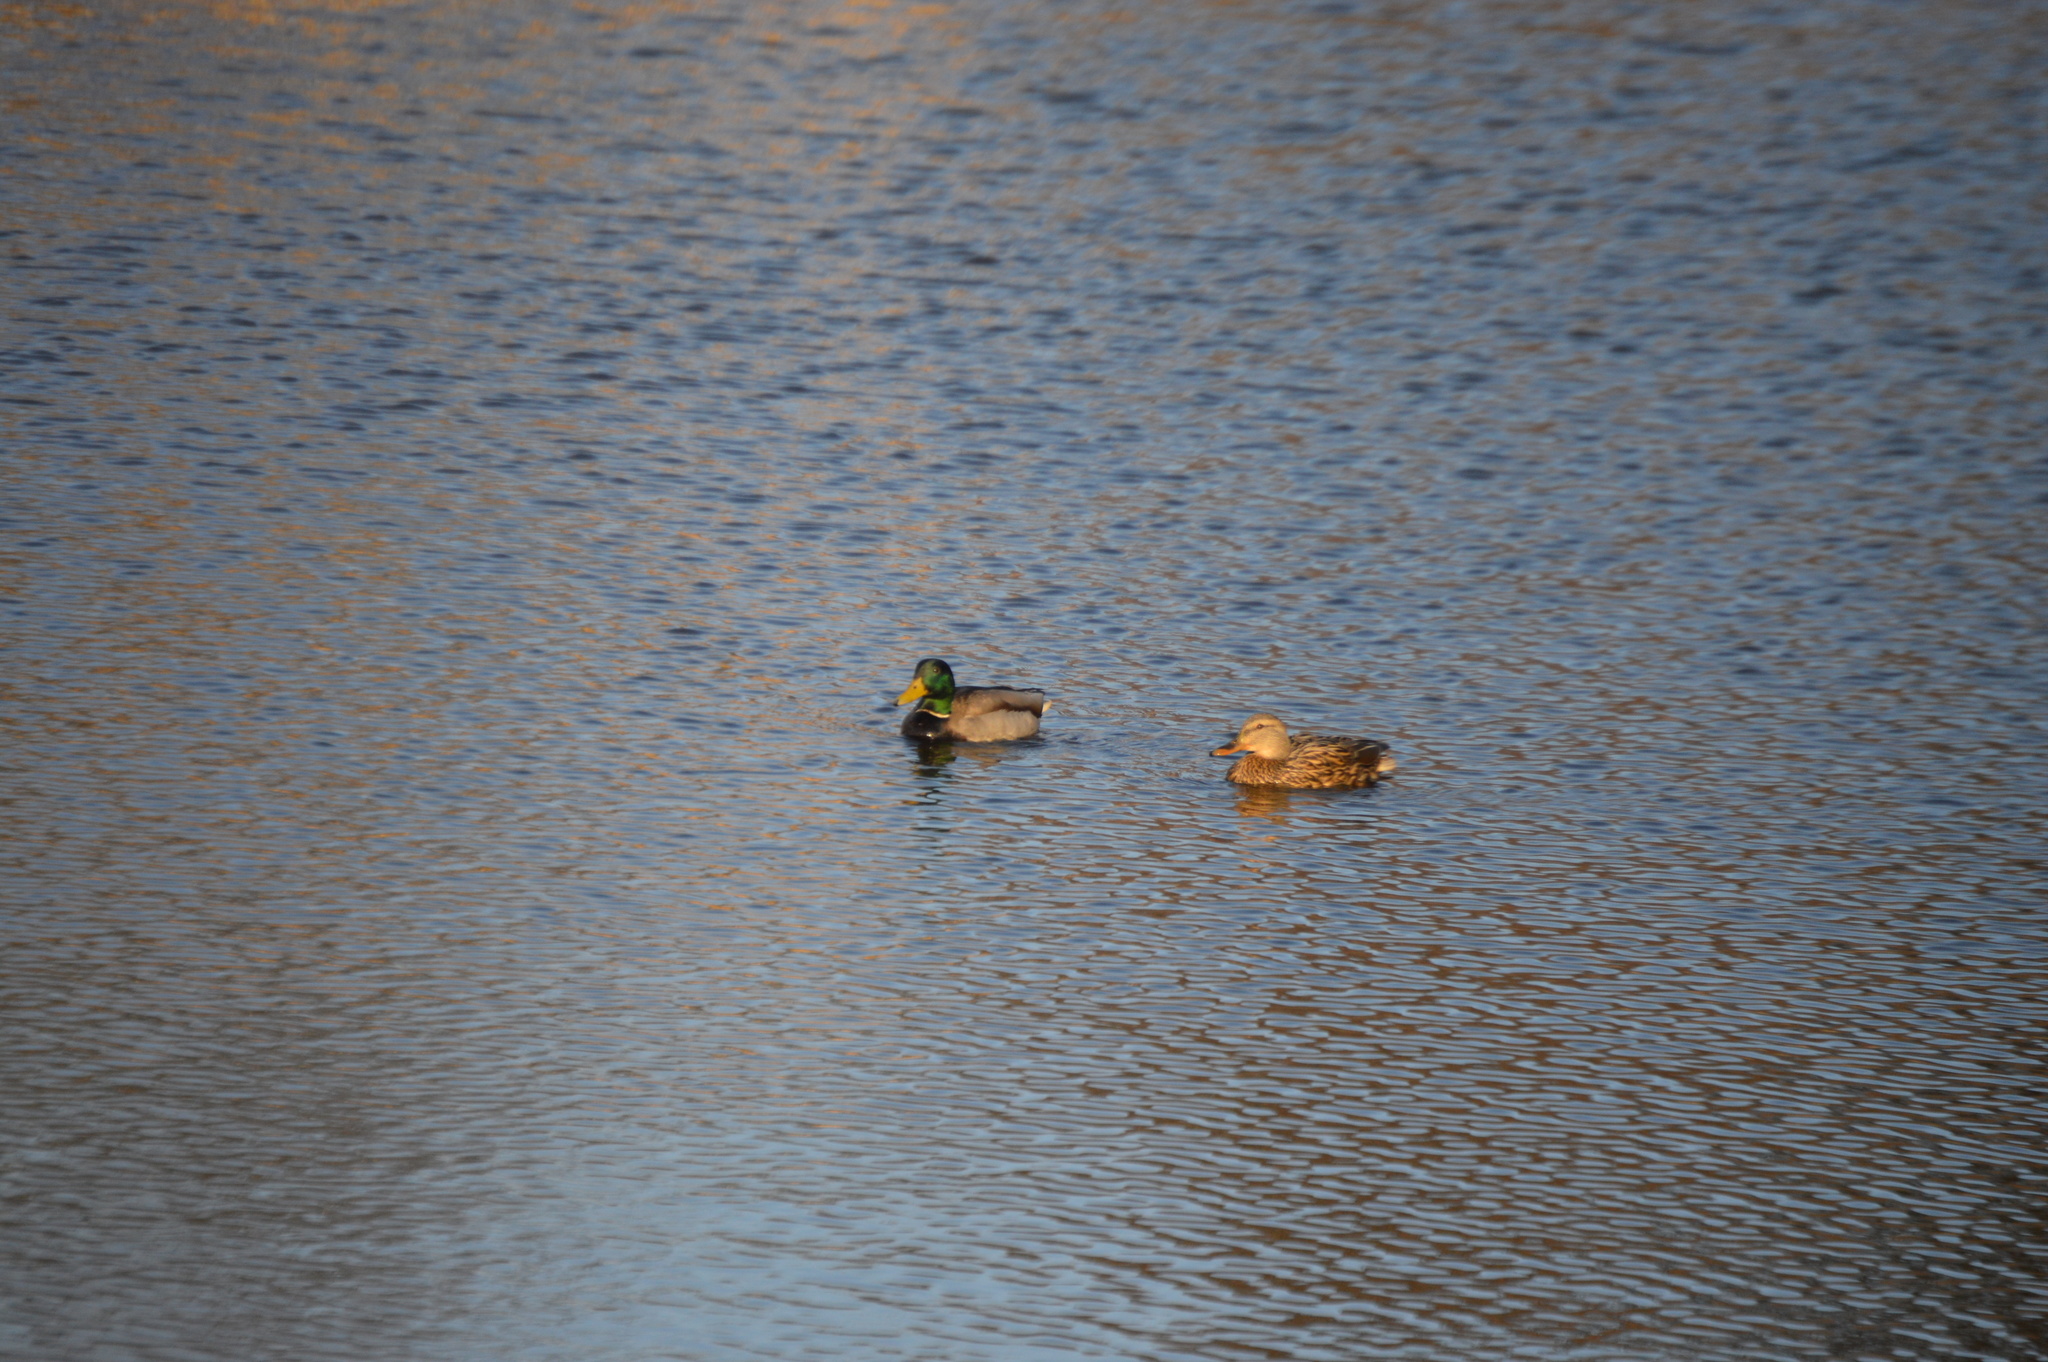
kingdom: Animalia
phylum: Chordata
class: Aves
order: Anseriformes
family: Anatidae
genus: Anas
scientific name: Anas platyrhynchos
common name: Mallard
